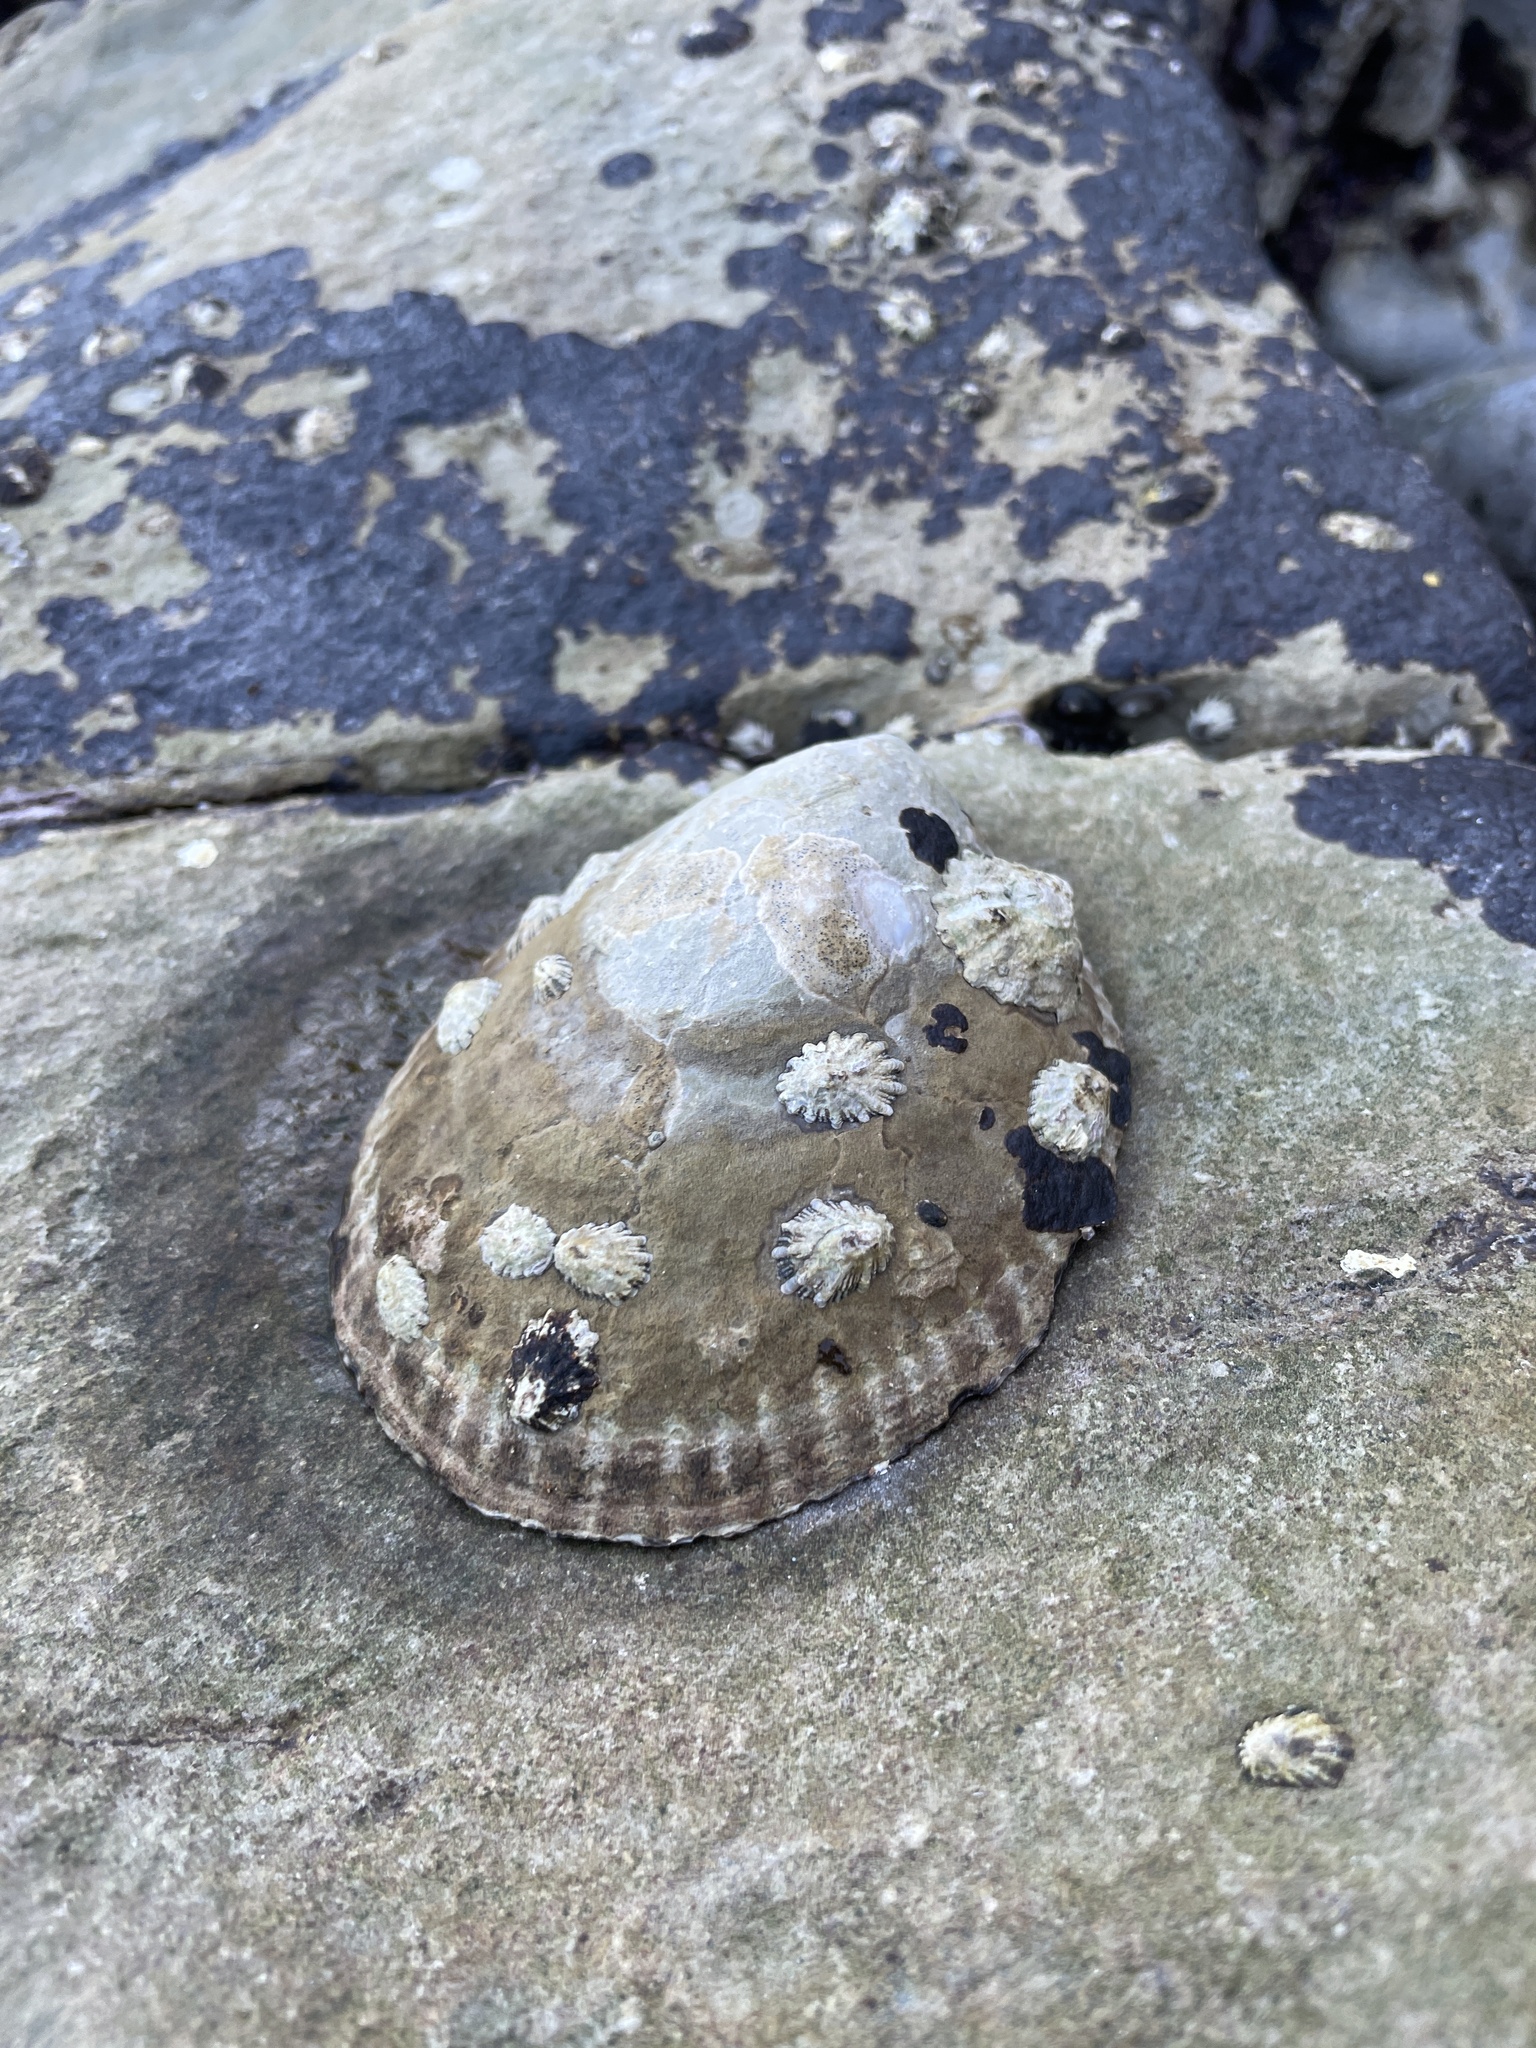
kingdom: Animalia
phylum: Mollusca
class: Gastropoda
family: Lottiidae
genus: Lottia
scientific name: Lottia gigantea
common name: Owl limpet
